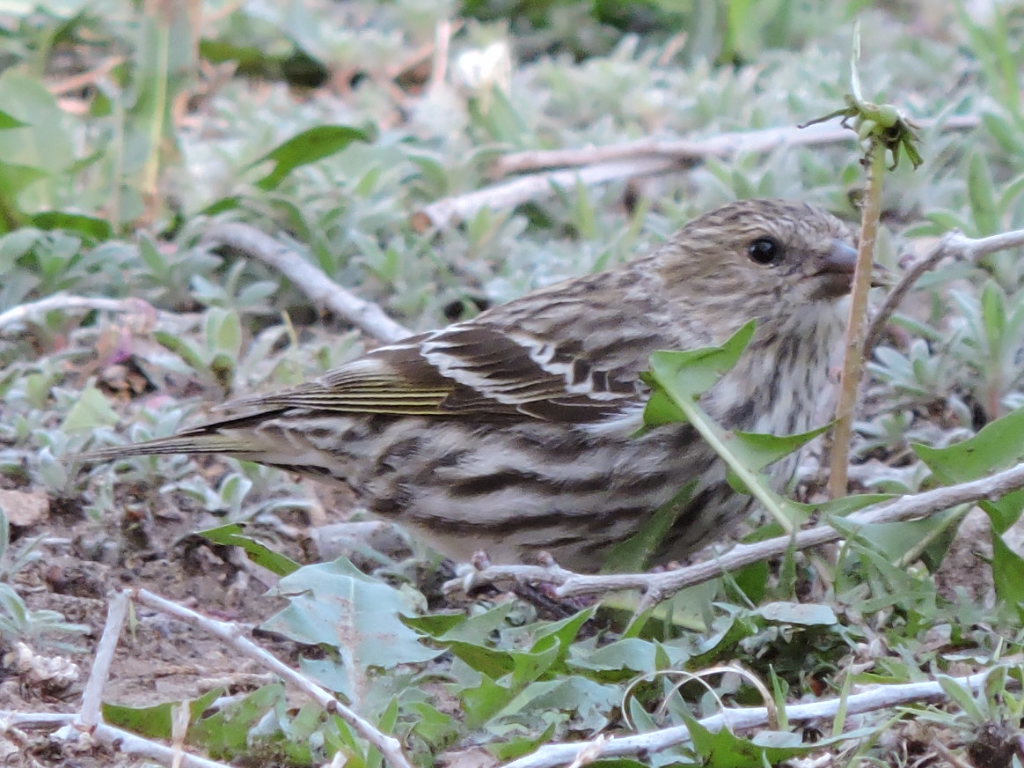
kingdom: Animalia
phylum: Chordata
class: Aves
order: Passeriformes
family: Fringillidae
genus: Spinus
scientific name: Spinus pinus
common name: Pine siskin
